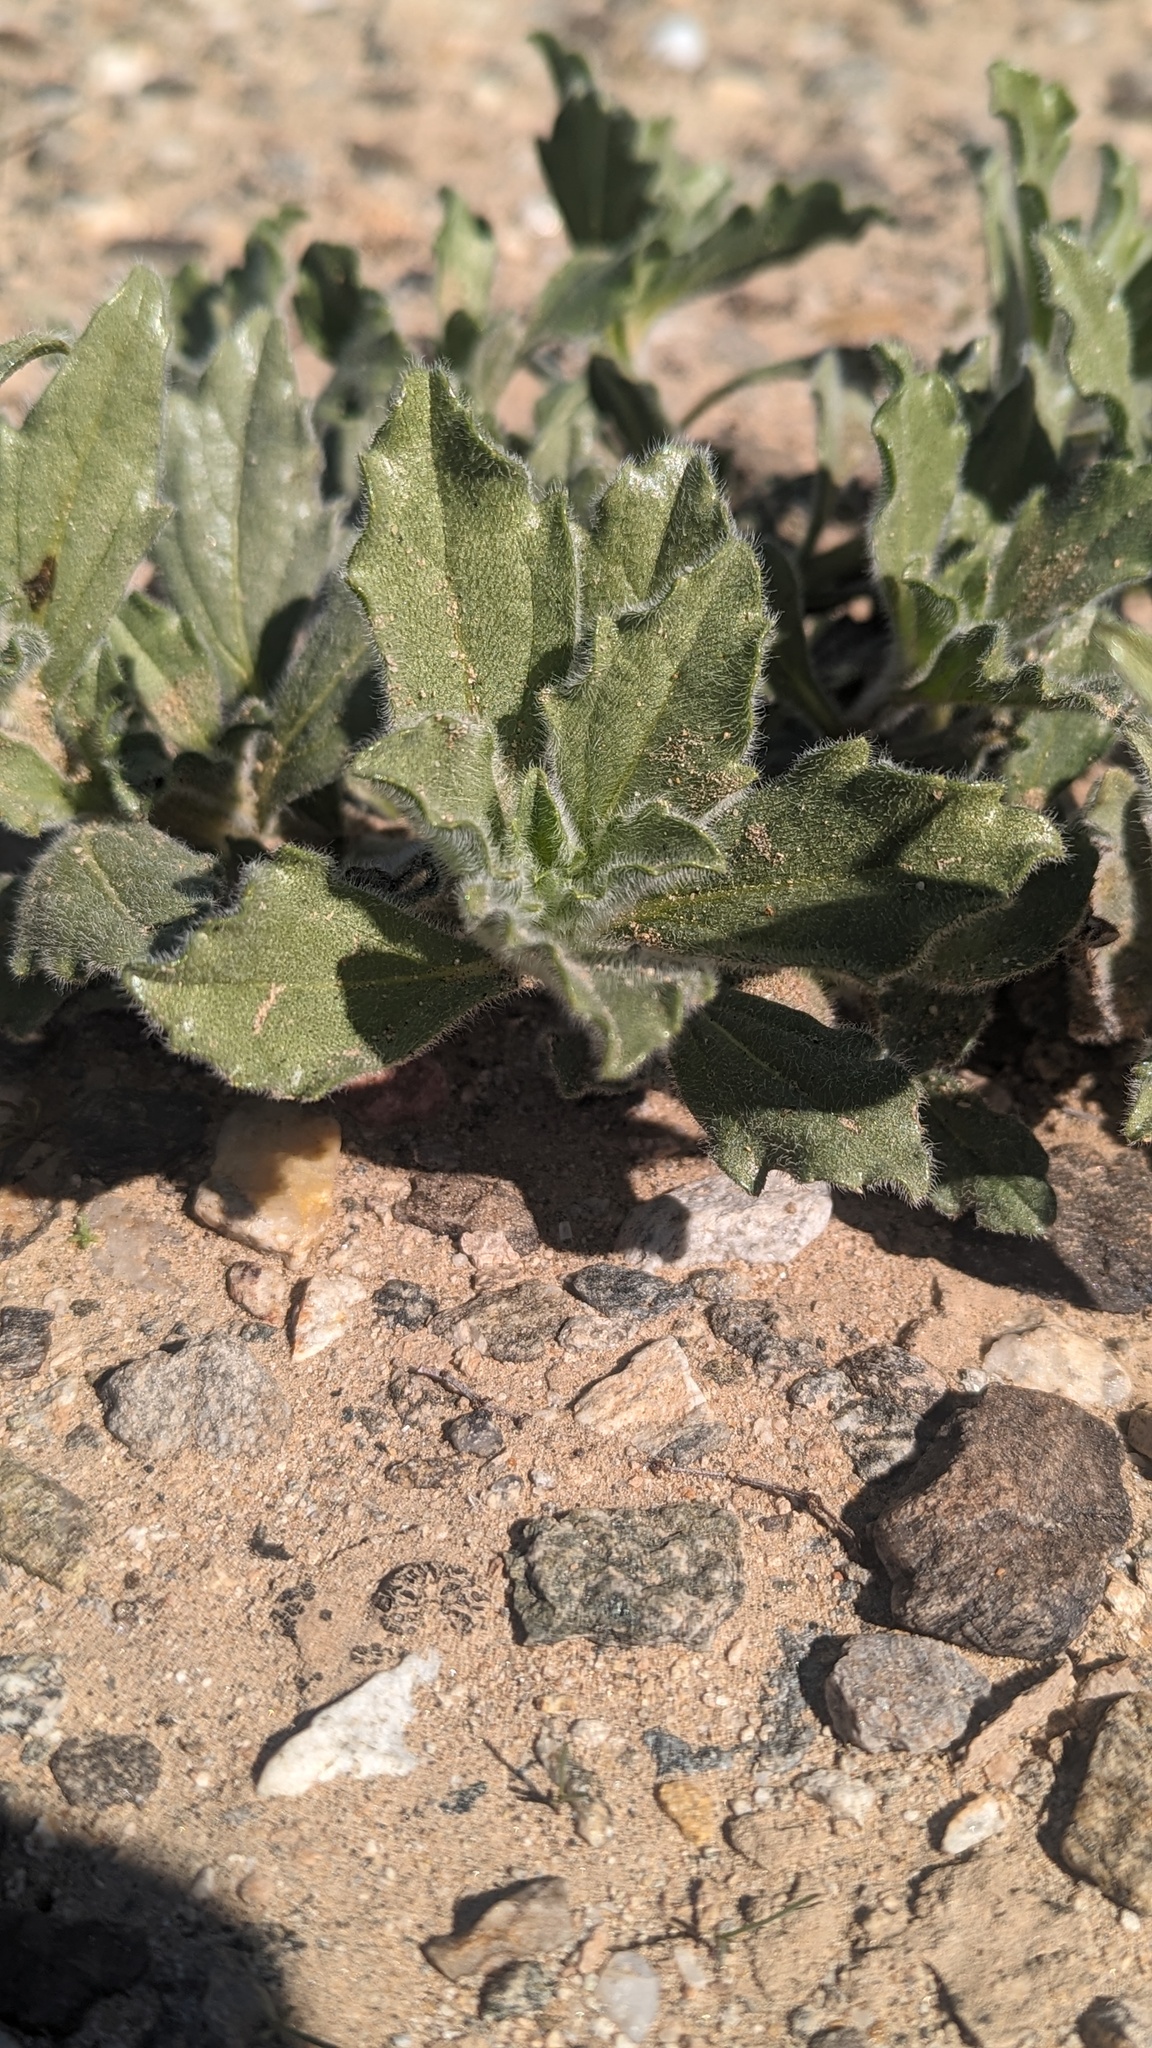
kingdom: Plantae
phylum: Tracheophyta
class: Magnoliopsida
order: Asterales
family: Asteraceae
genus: Geraea
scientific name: Geraea canescens
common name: Desert-gold
